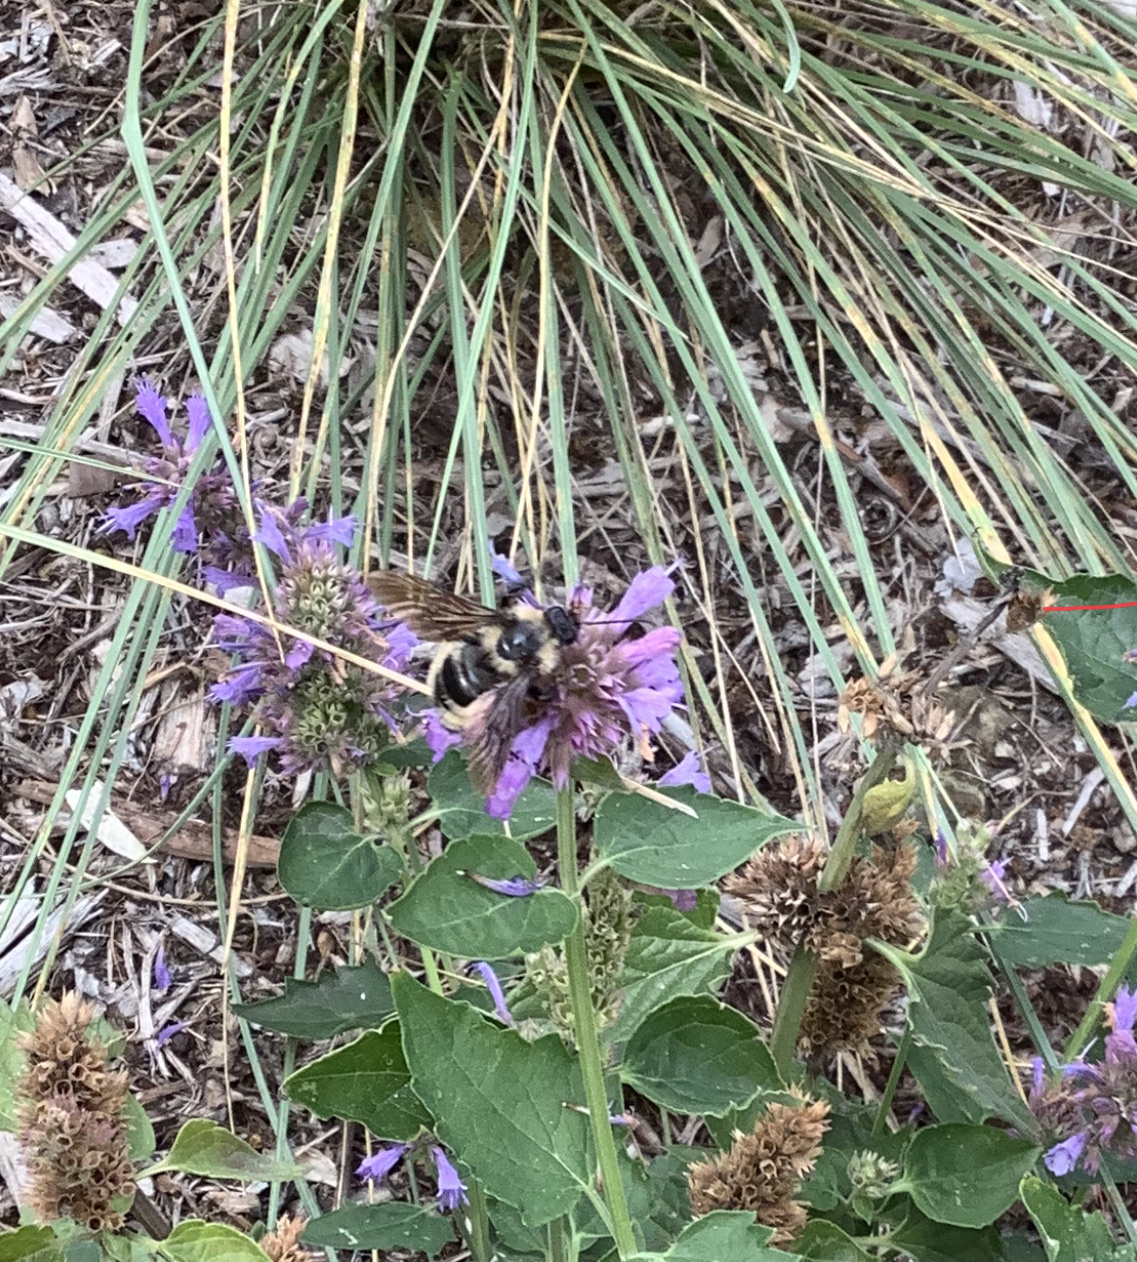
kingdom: Animalia
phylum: Arthropoda
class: Insecta
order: Hymenoptera
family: Apidae
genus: Bombus
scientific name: Bombus sonorus
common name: Sonoran bumble bee
